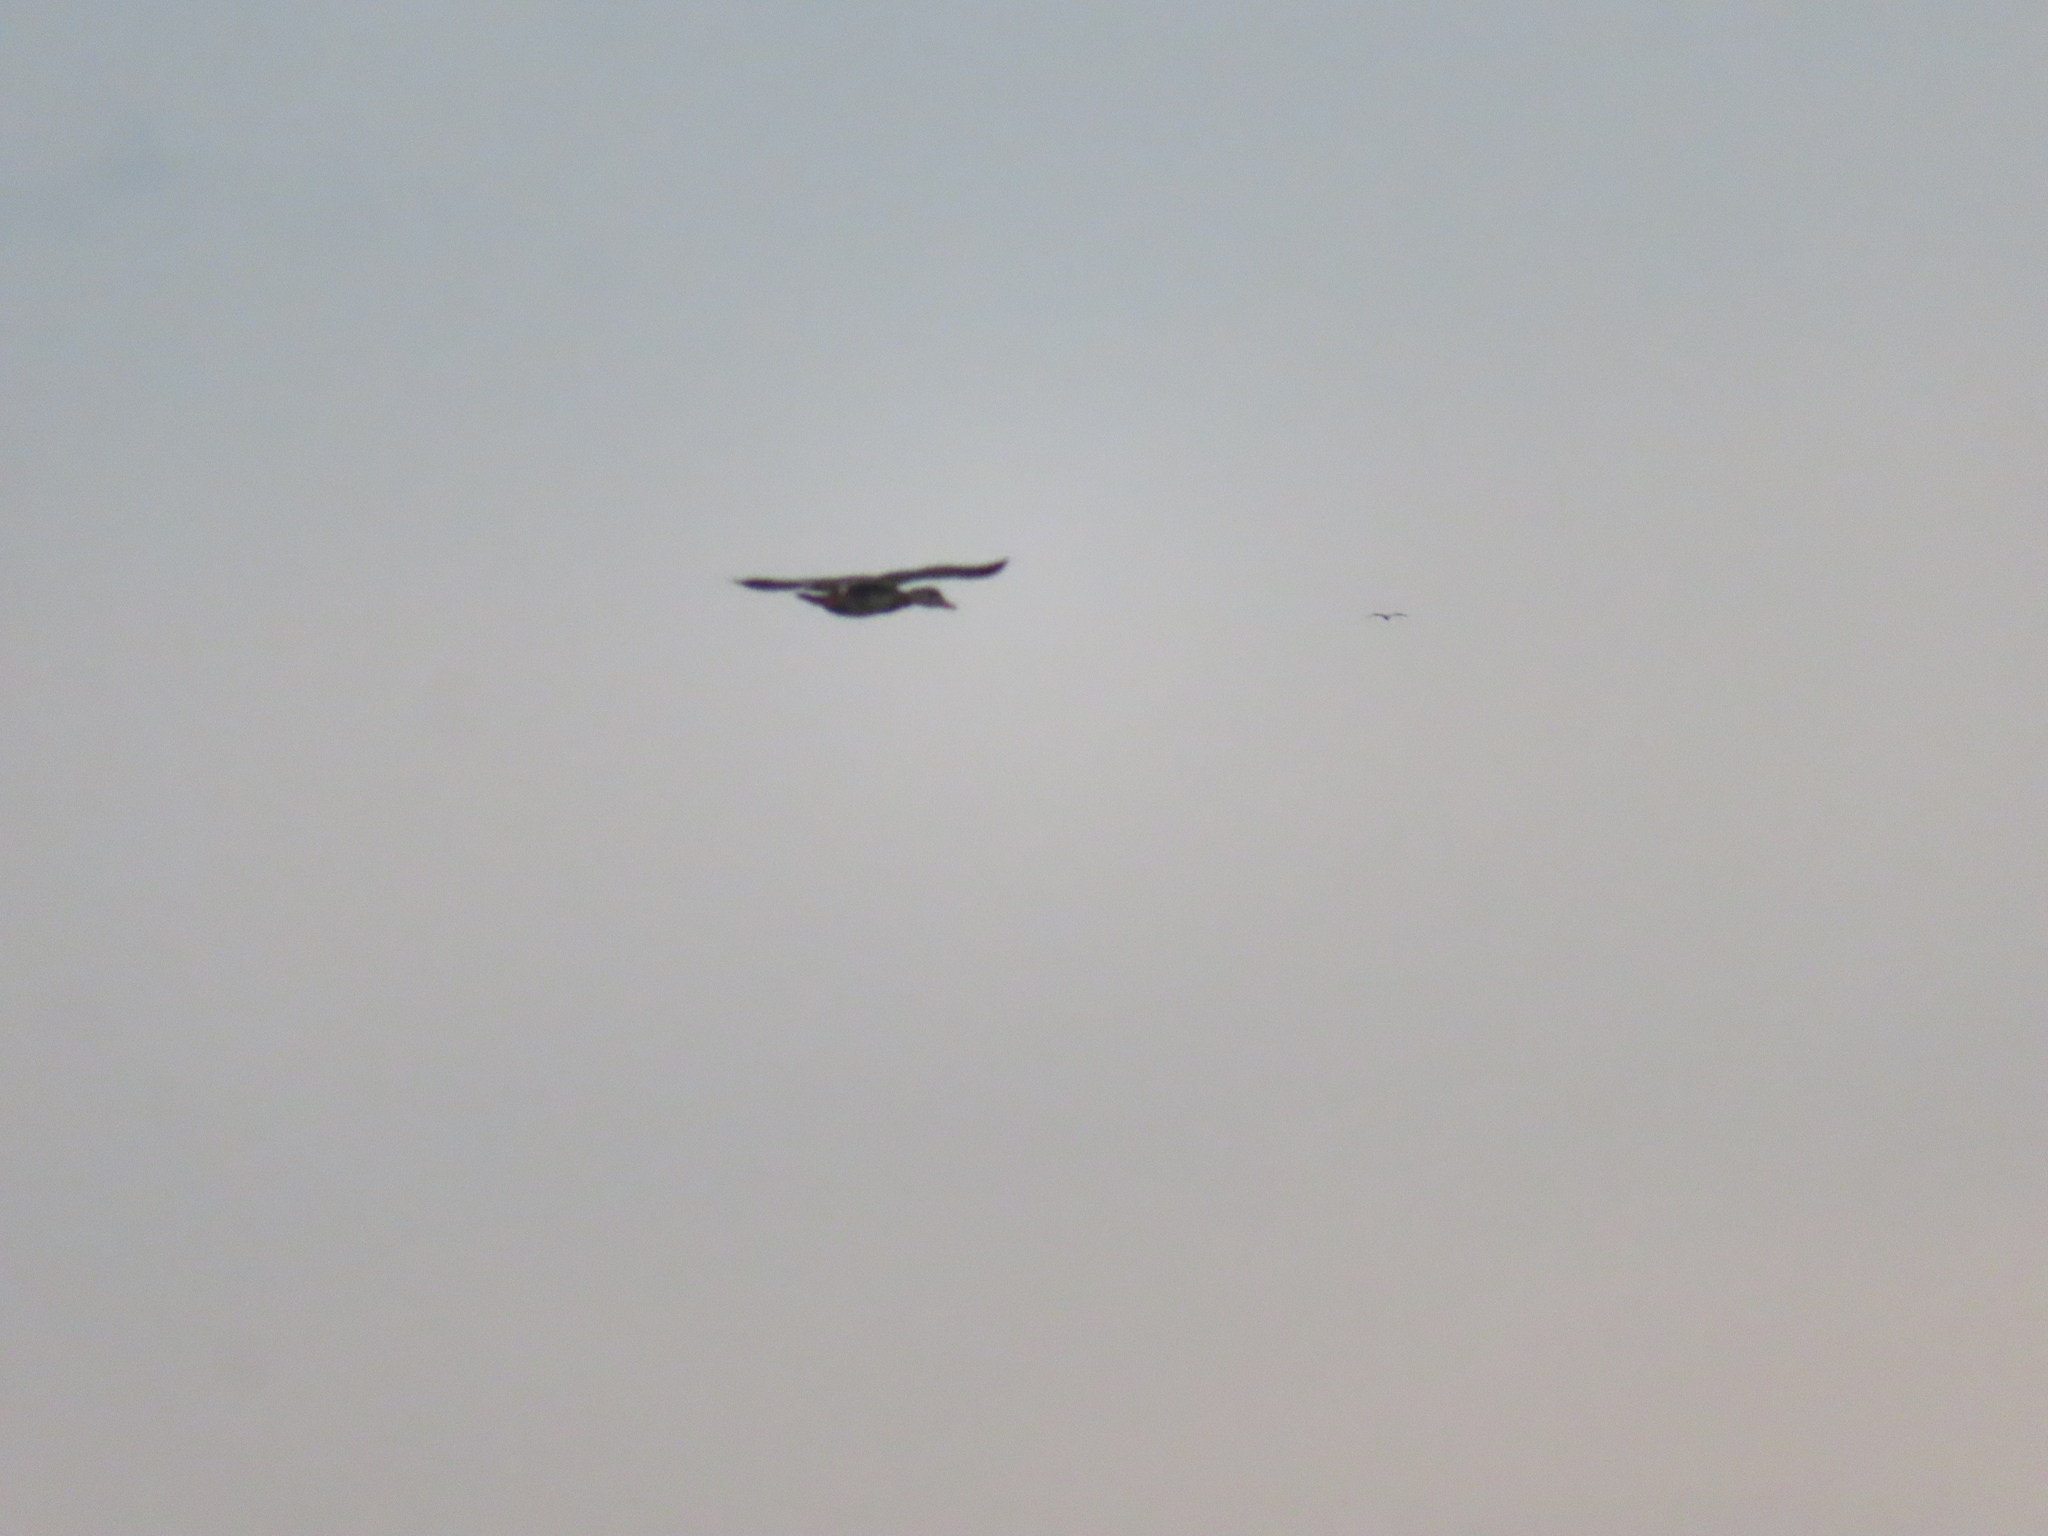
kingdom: Animalia
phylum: Chordata
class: Aves
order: Anseriformes
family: Anatidae
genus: Anas
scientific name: Anas platyrhynchos
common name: Mallard
